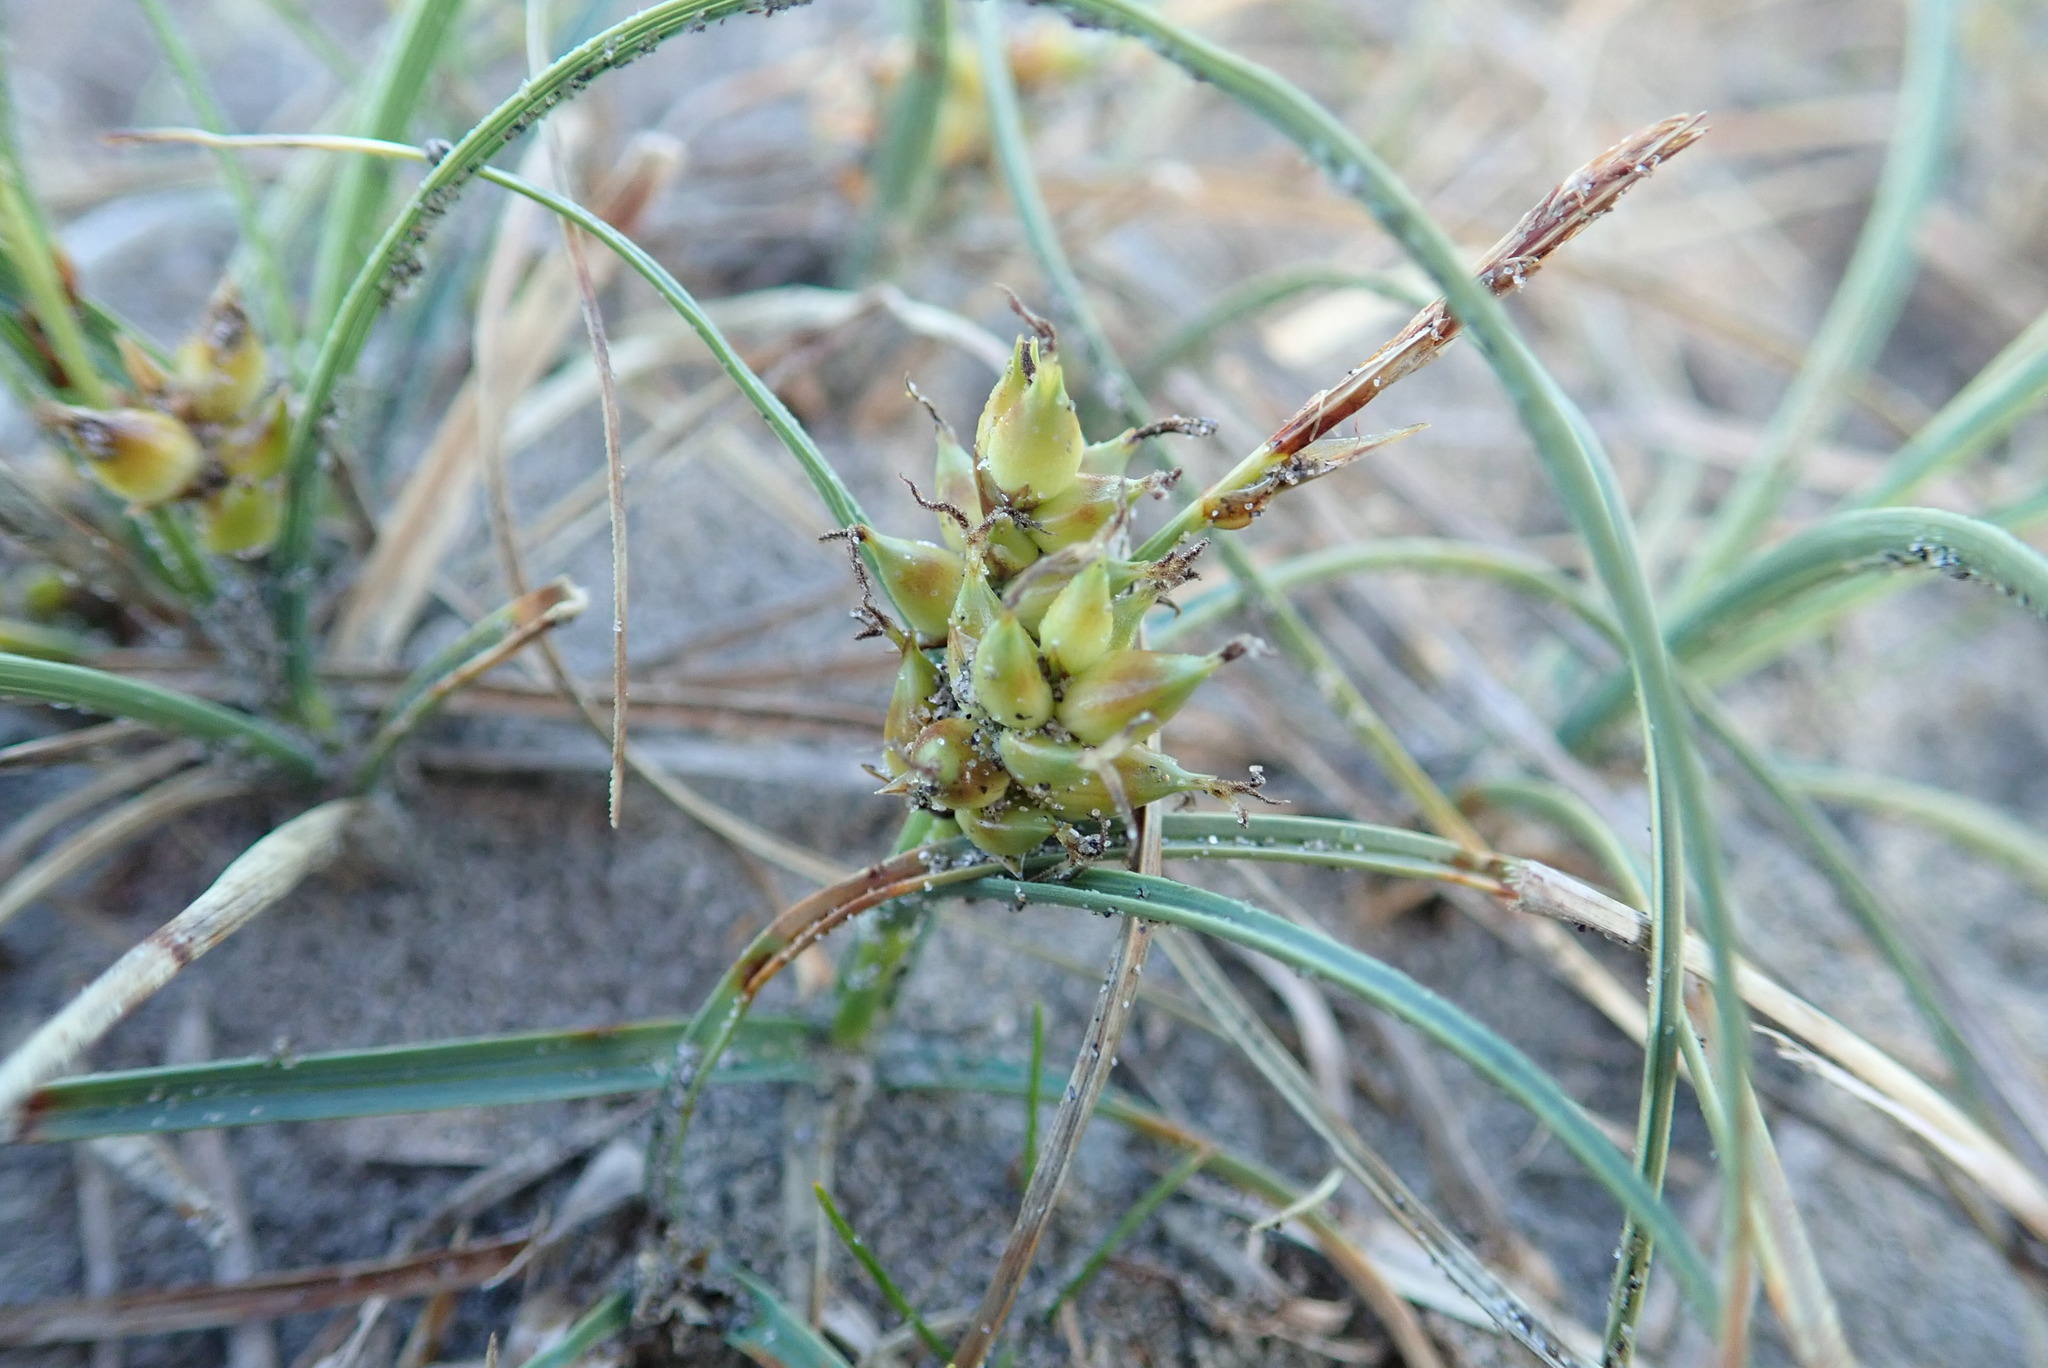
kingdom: Plantae
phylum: Tracheophyta
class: Liliopsida
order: Poales
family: Cyperaceae
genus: Carex
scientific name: Carex pumila
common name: Dwarf sedge
